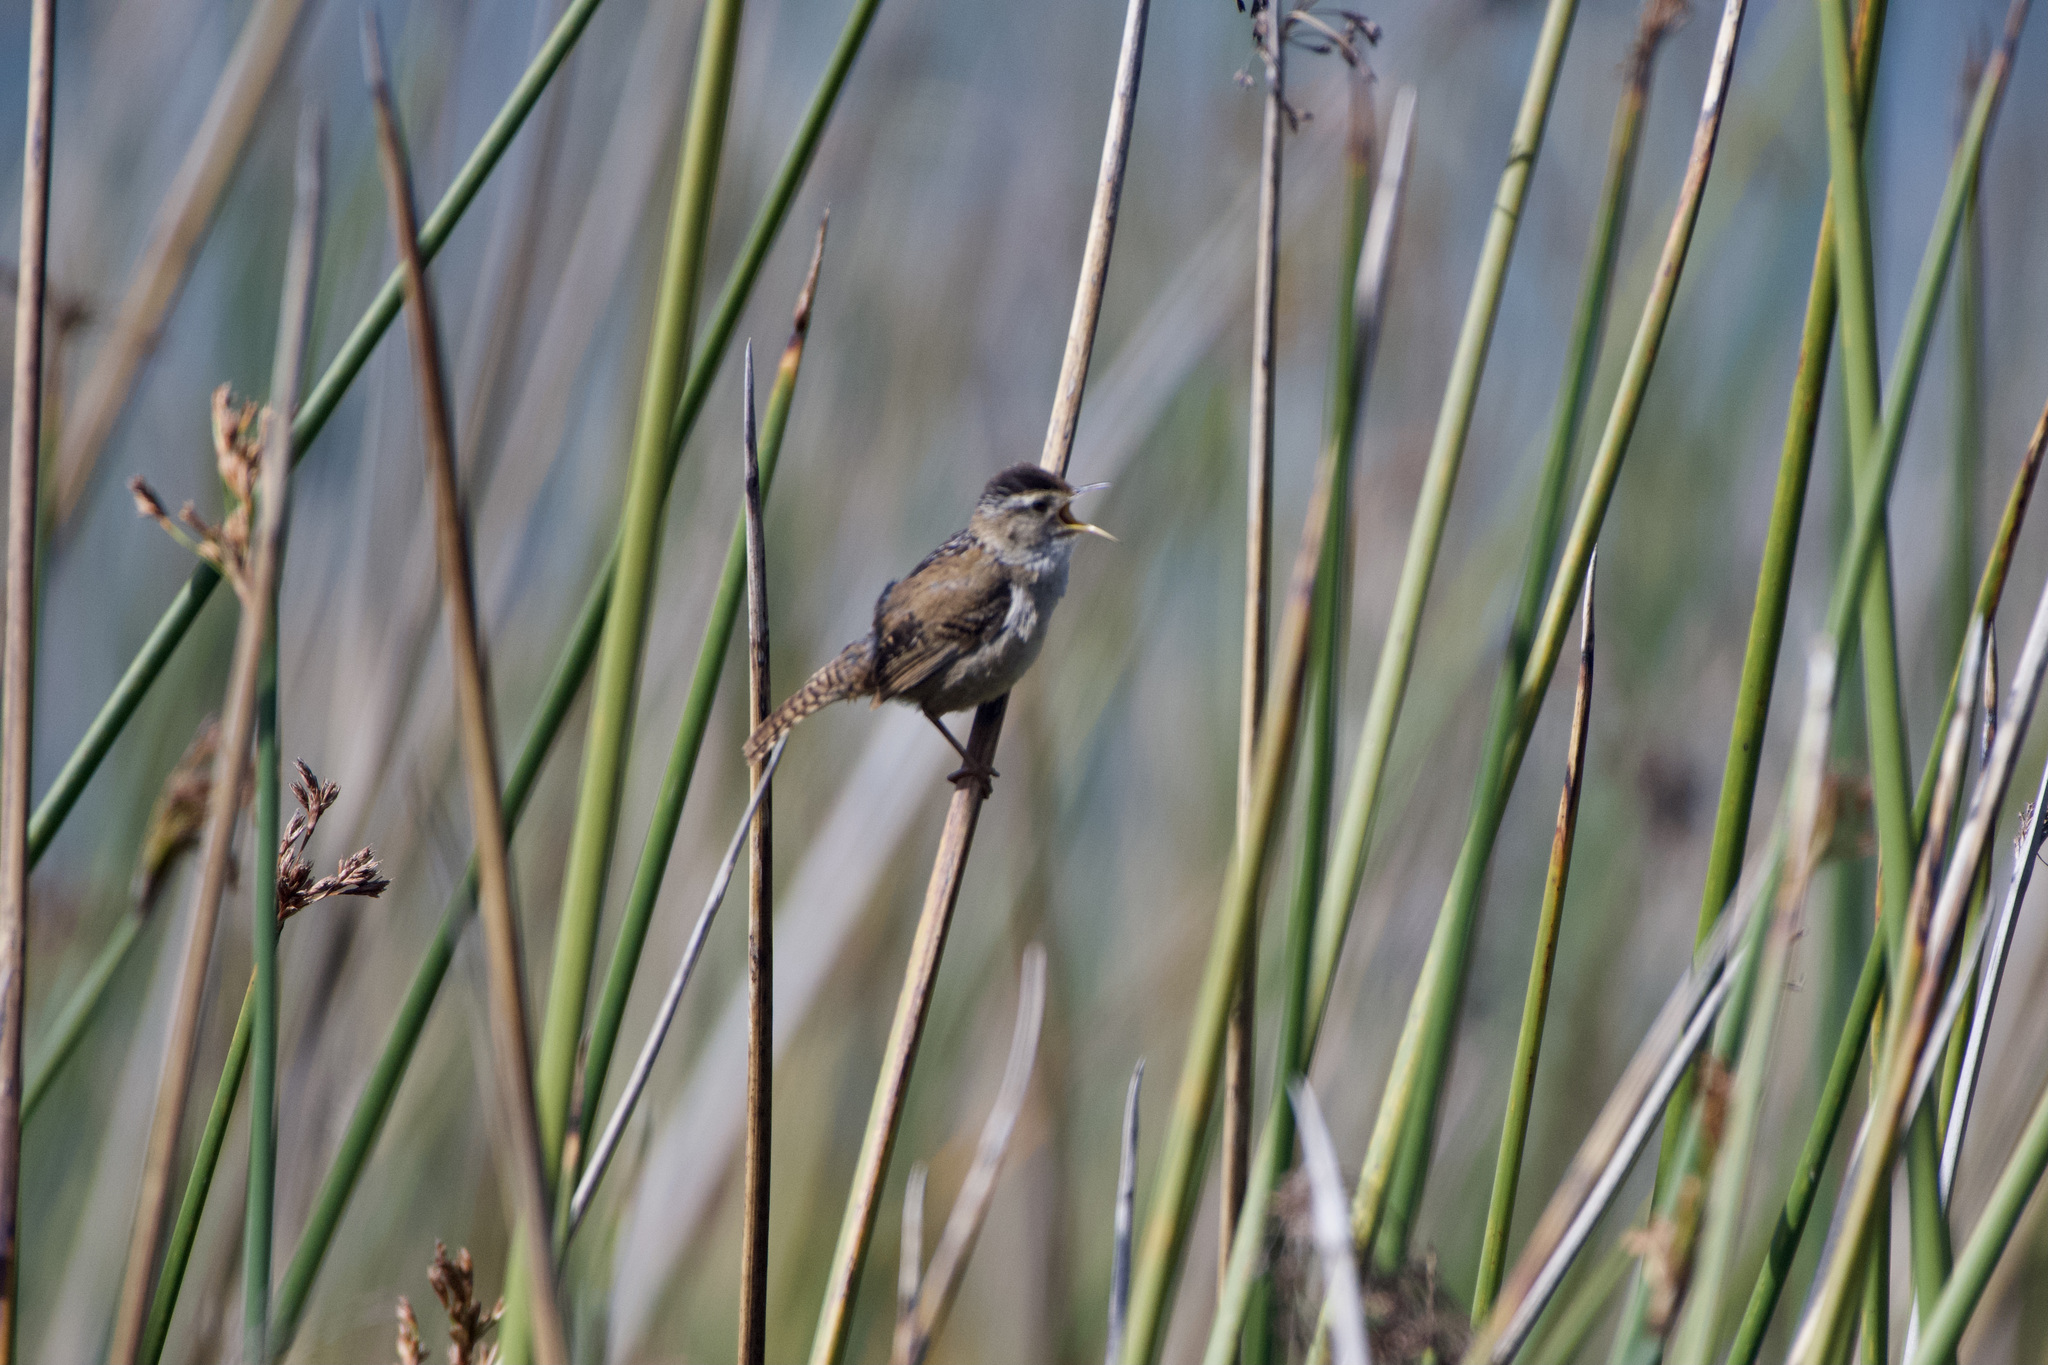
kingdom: Animalia
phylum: Chordata
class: Aves
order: Passeriformes
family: Troglodytidae
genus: Cistothorus
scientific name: Cistothorus palustris
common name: Marsh wren
